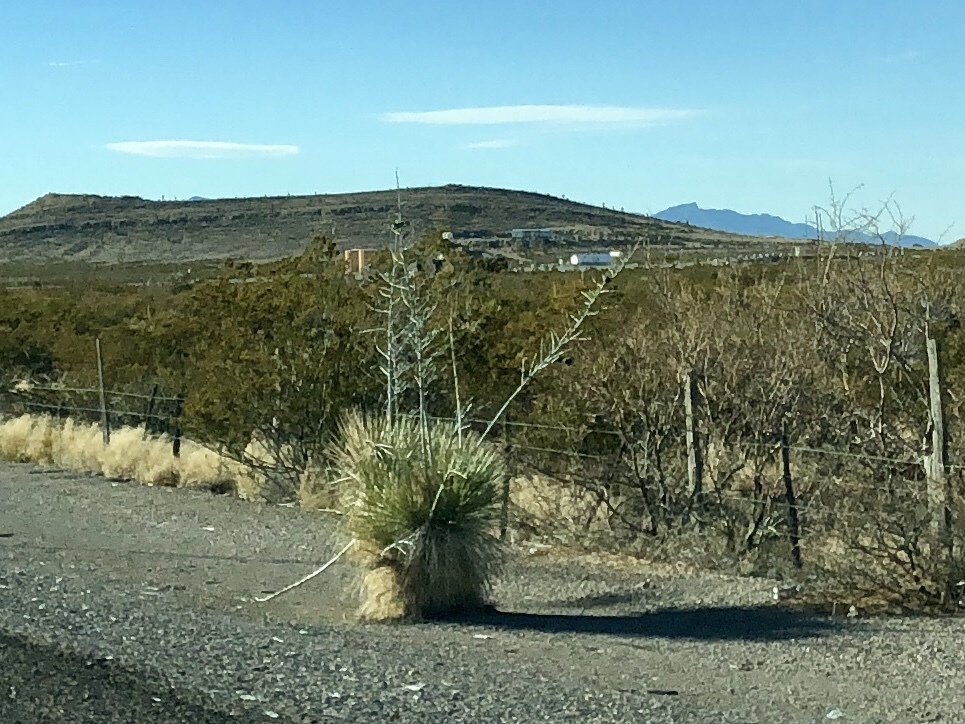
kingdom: Plantae
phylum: Tracheophyta
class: Liliopsida
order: Asparagales
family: Asparagaceae
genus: Yucca
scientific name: Yucca elata
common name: Palmella
